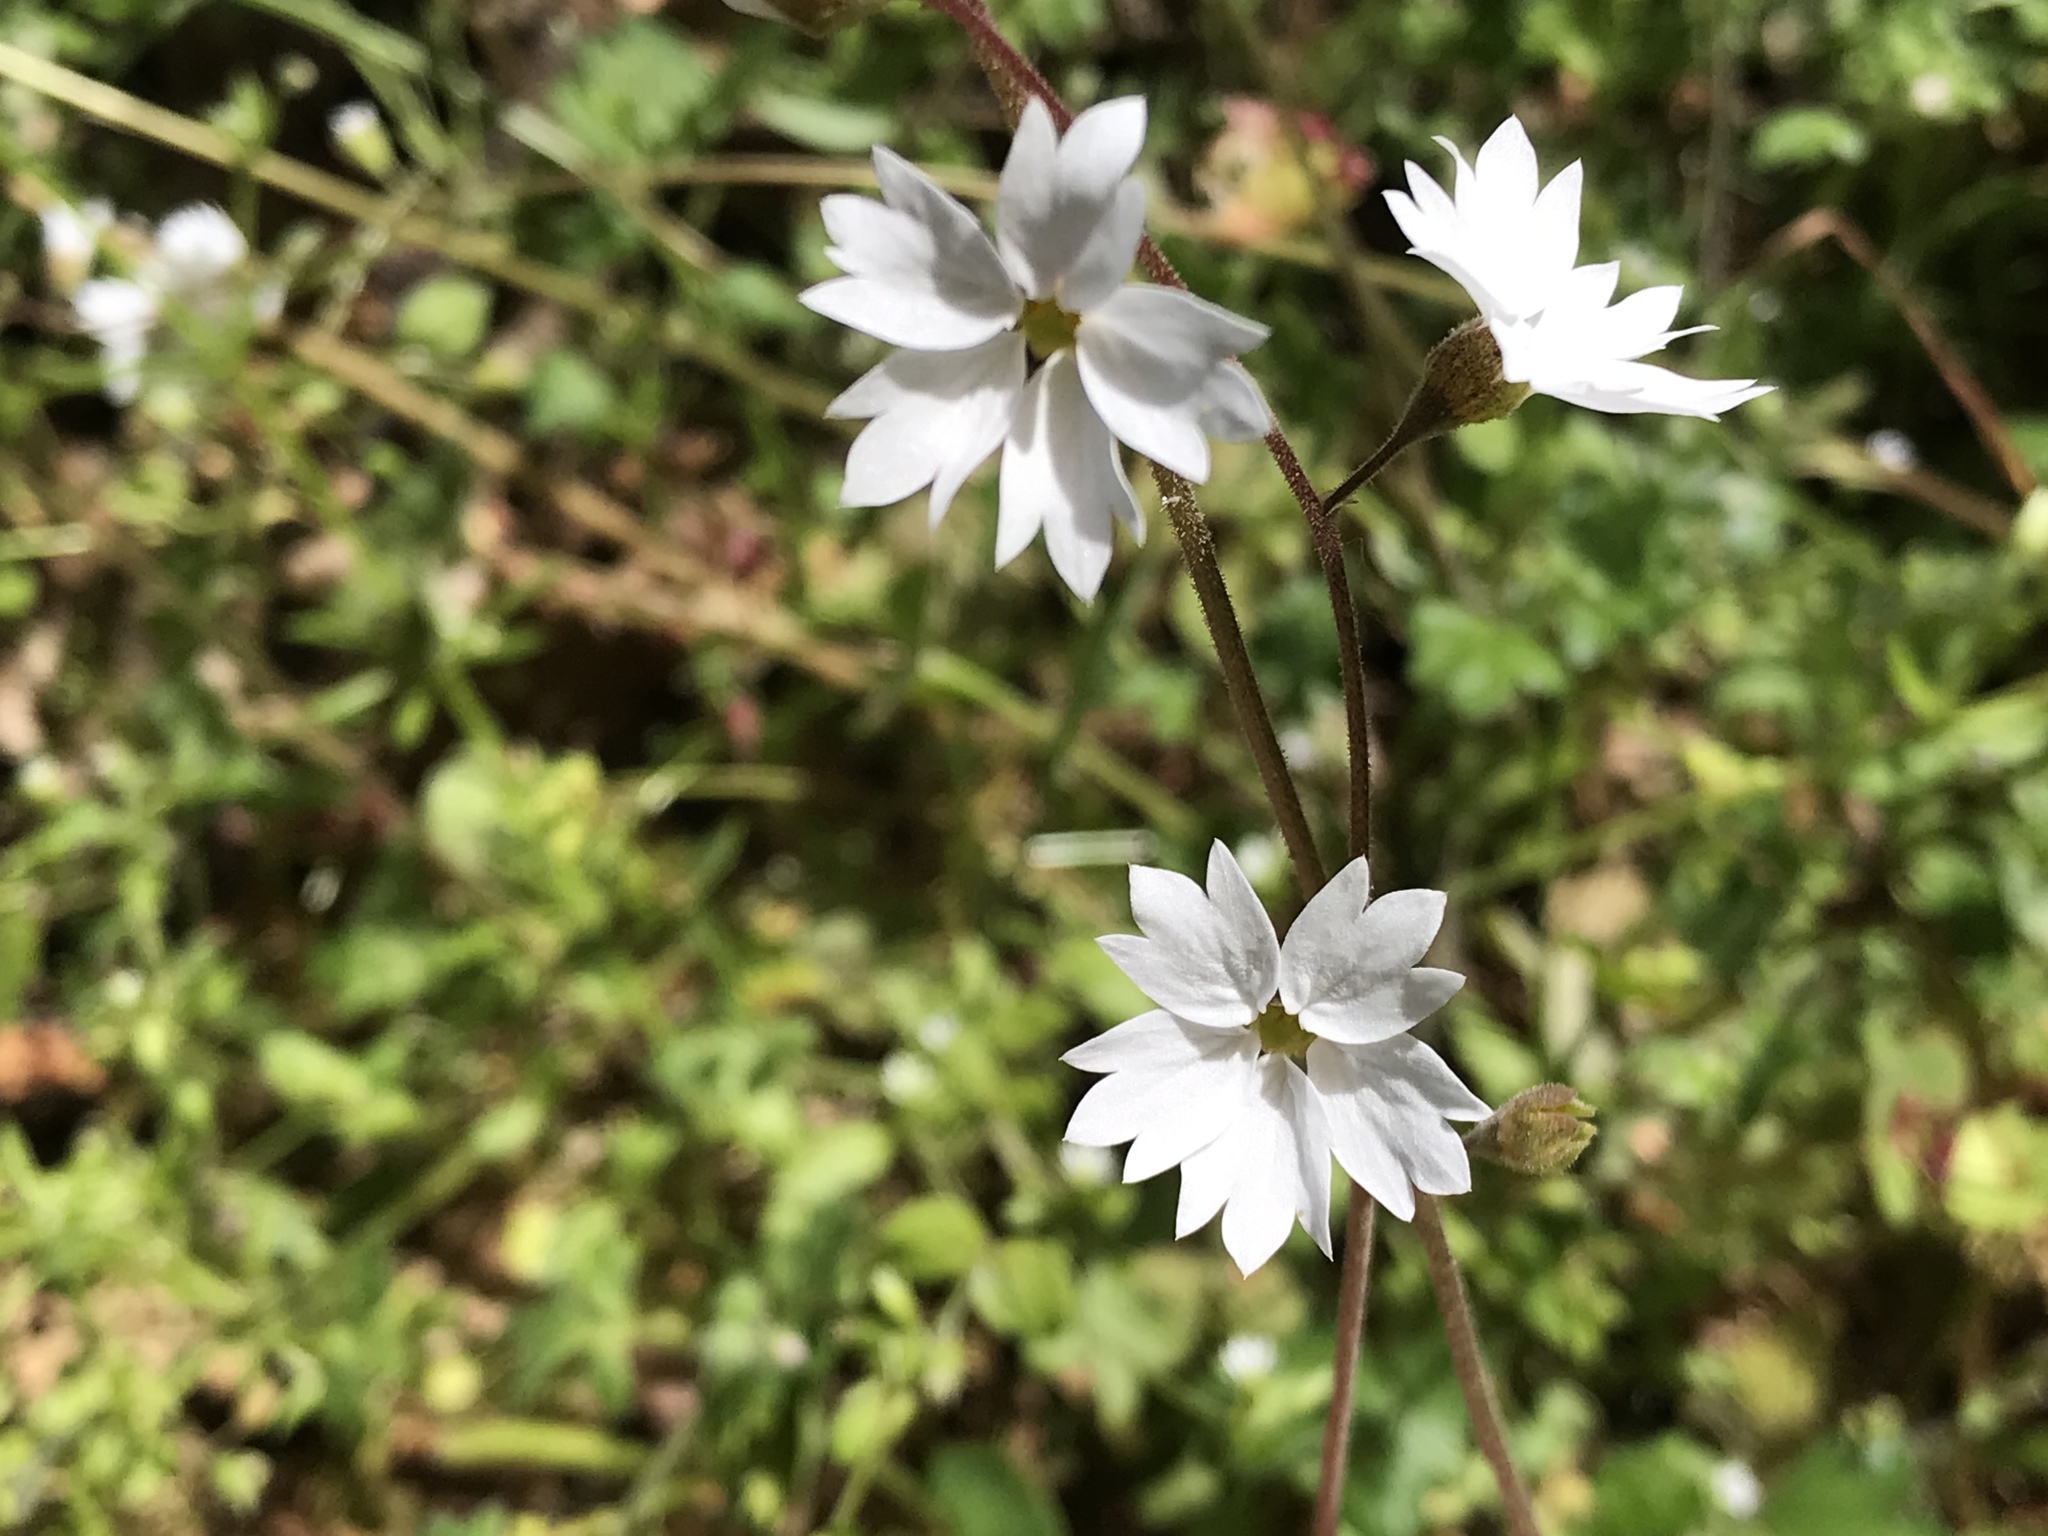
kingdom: Plantae
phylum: Tracheophyta
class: Magnoliopsida
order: Saxifragales
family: Saxifragaceae
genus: Lithophragma
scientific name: Lithophragma affine
